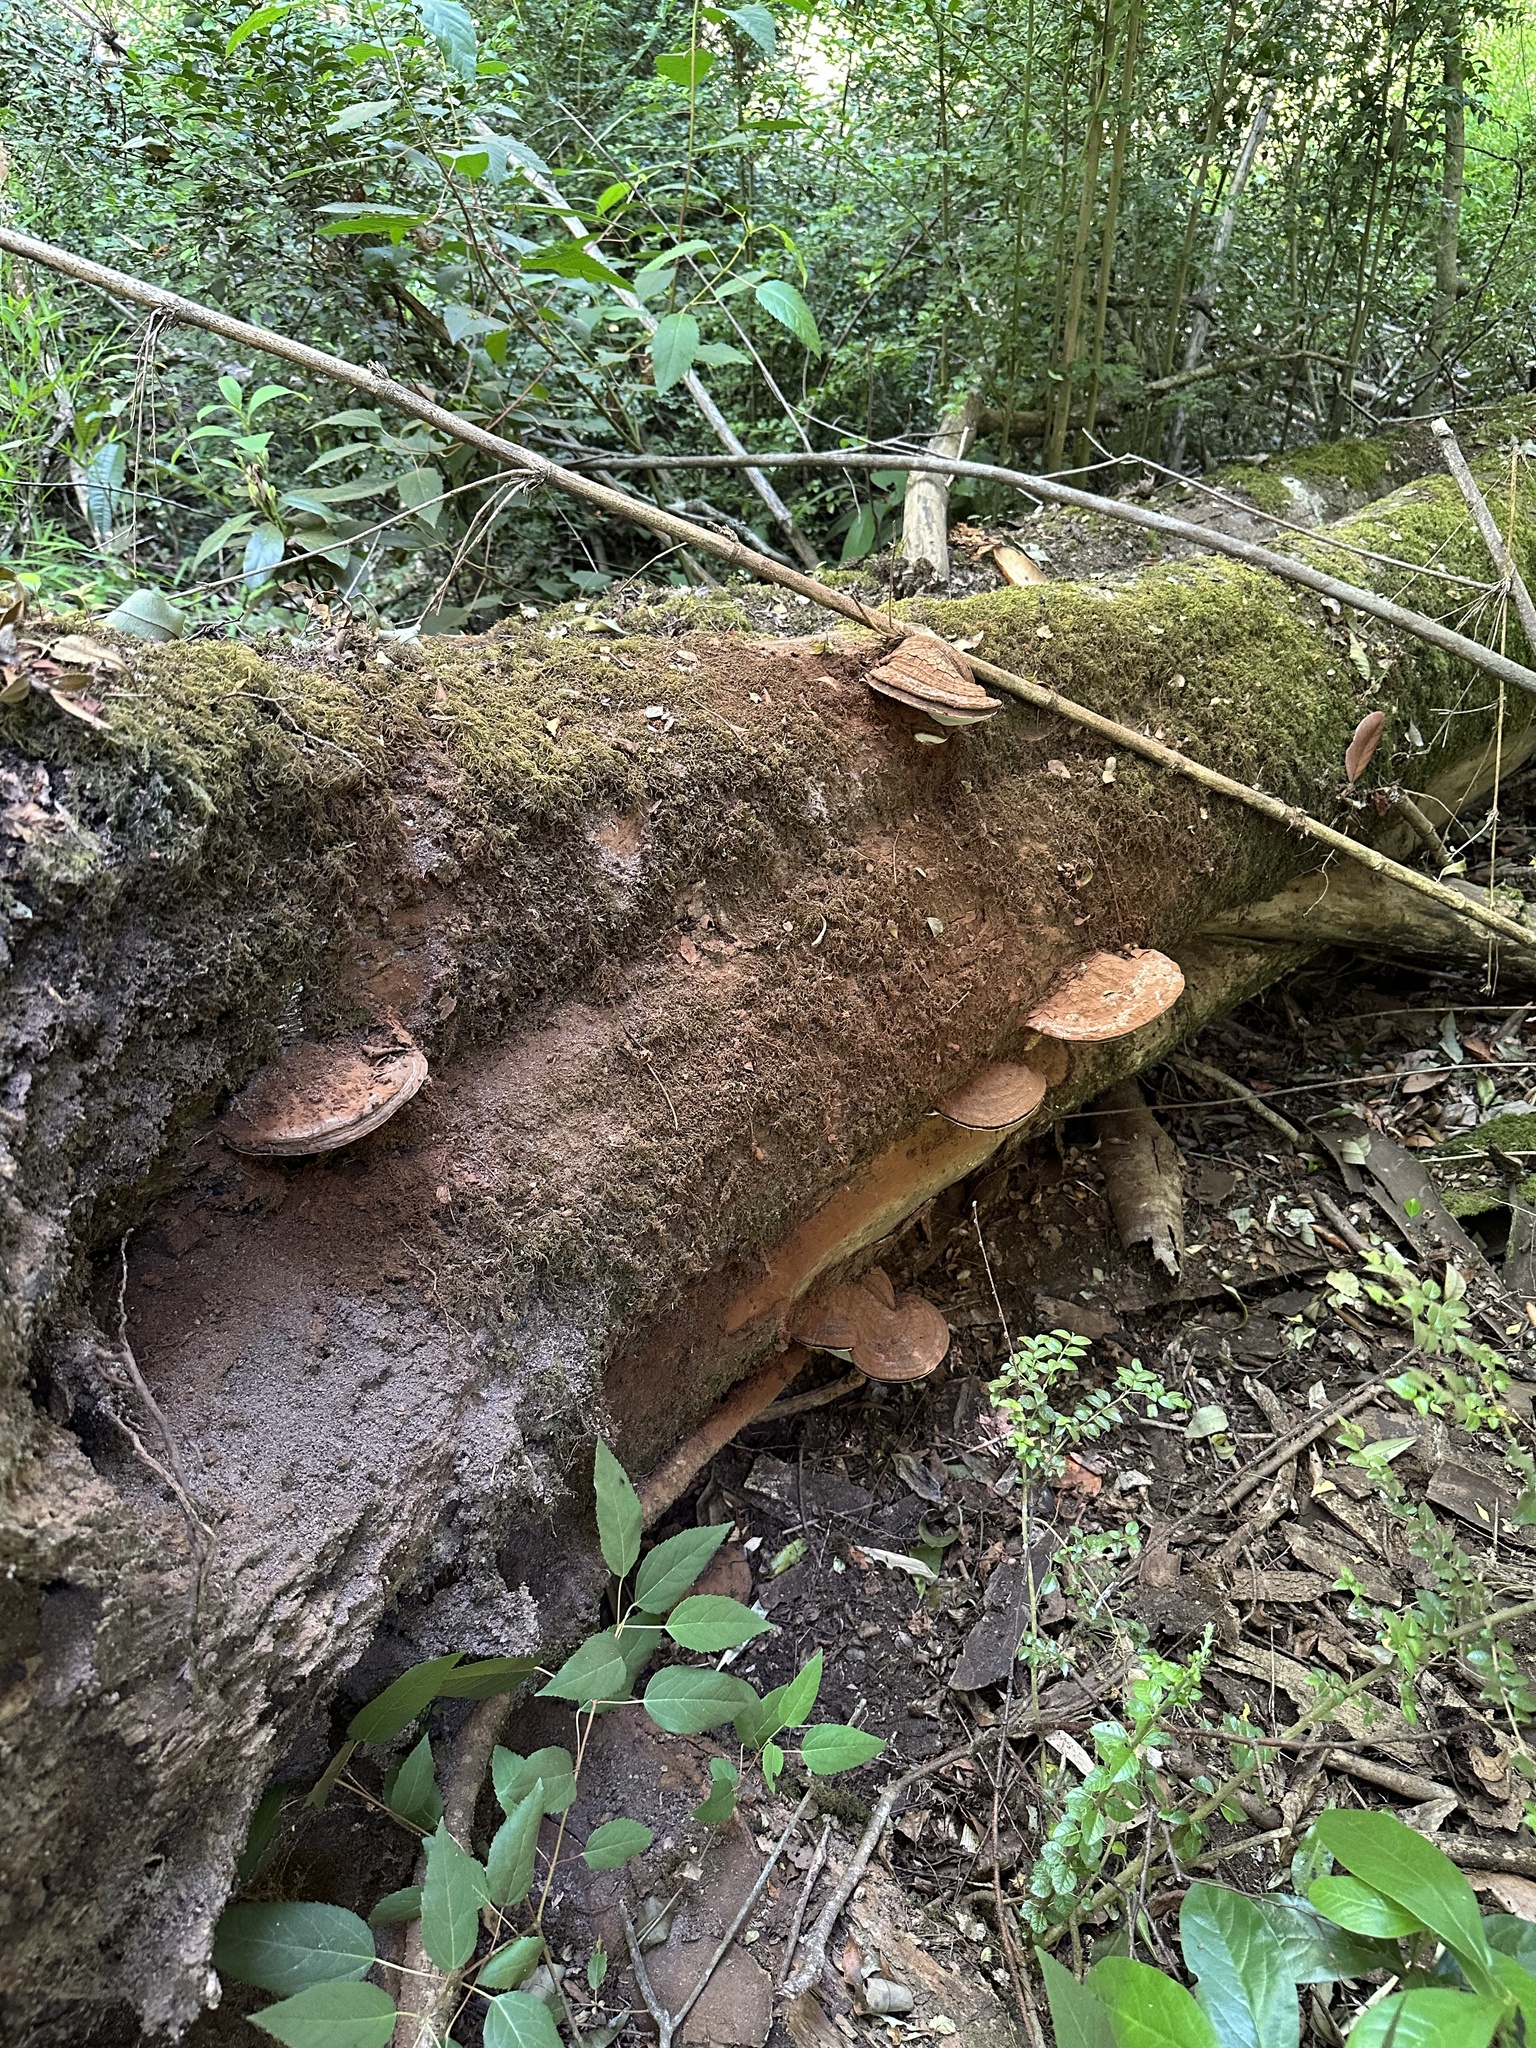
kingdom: Fungi
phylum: Basidiomycota
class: Agaricomycetes
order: Polyporales
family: Polyporaceae
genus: Ganoderma
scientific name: Ganoderma australe
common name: Southern bracket
